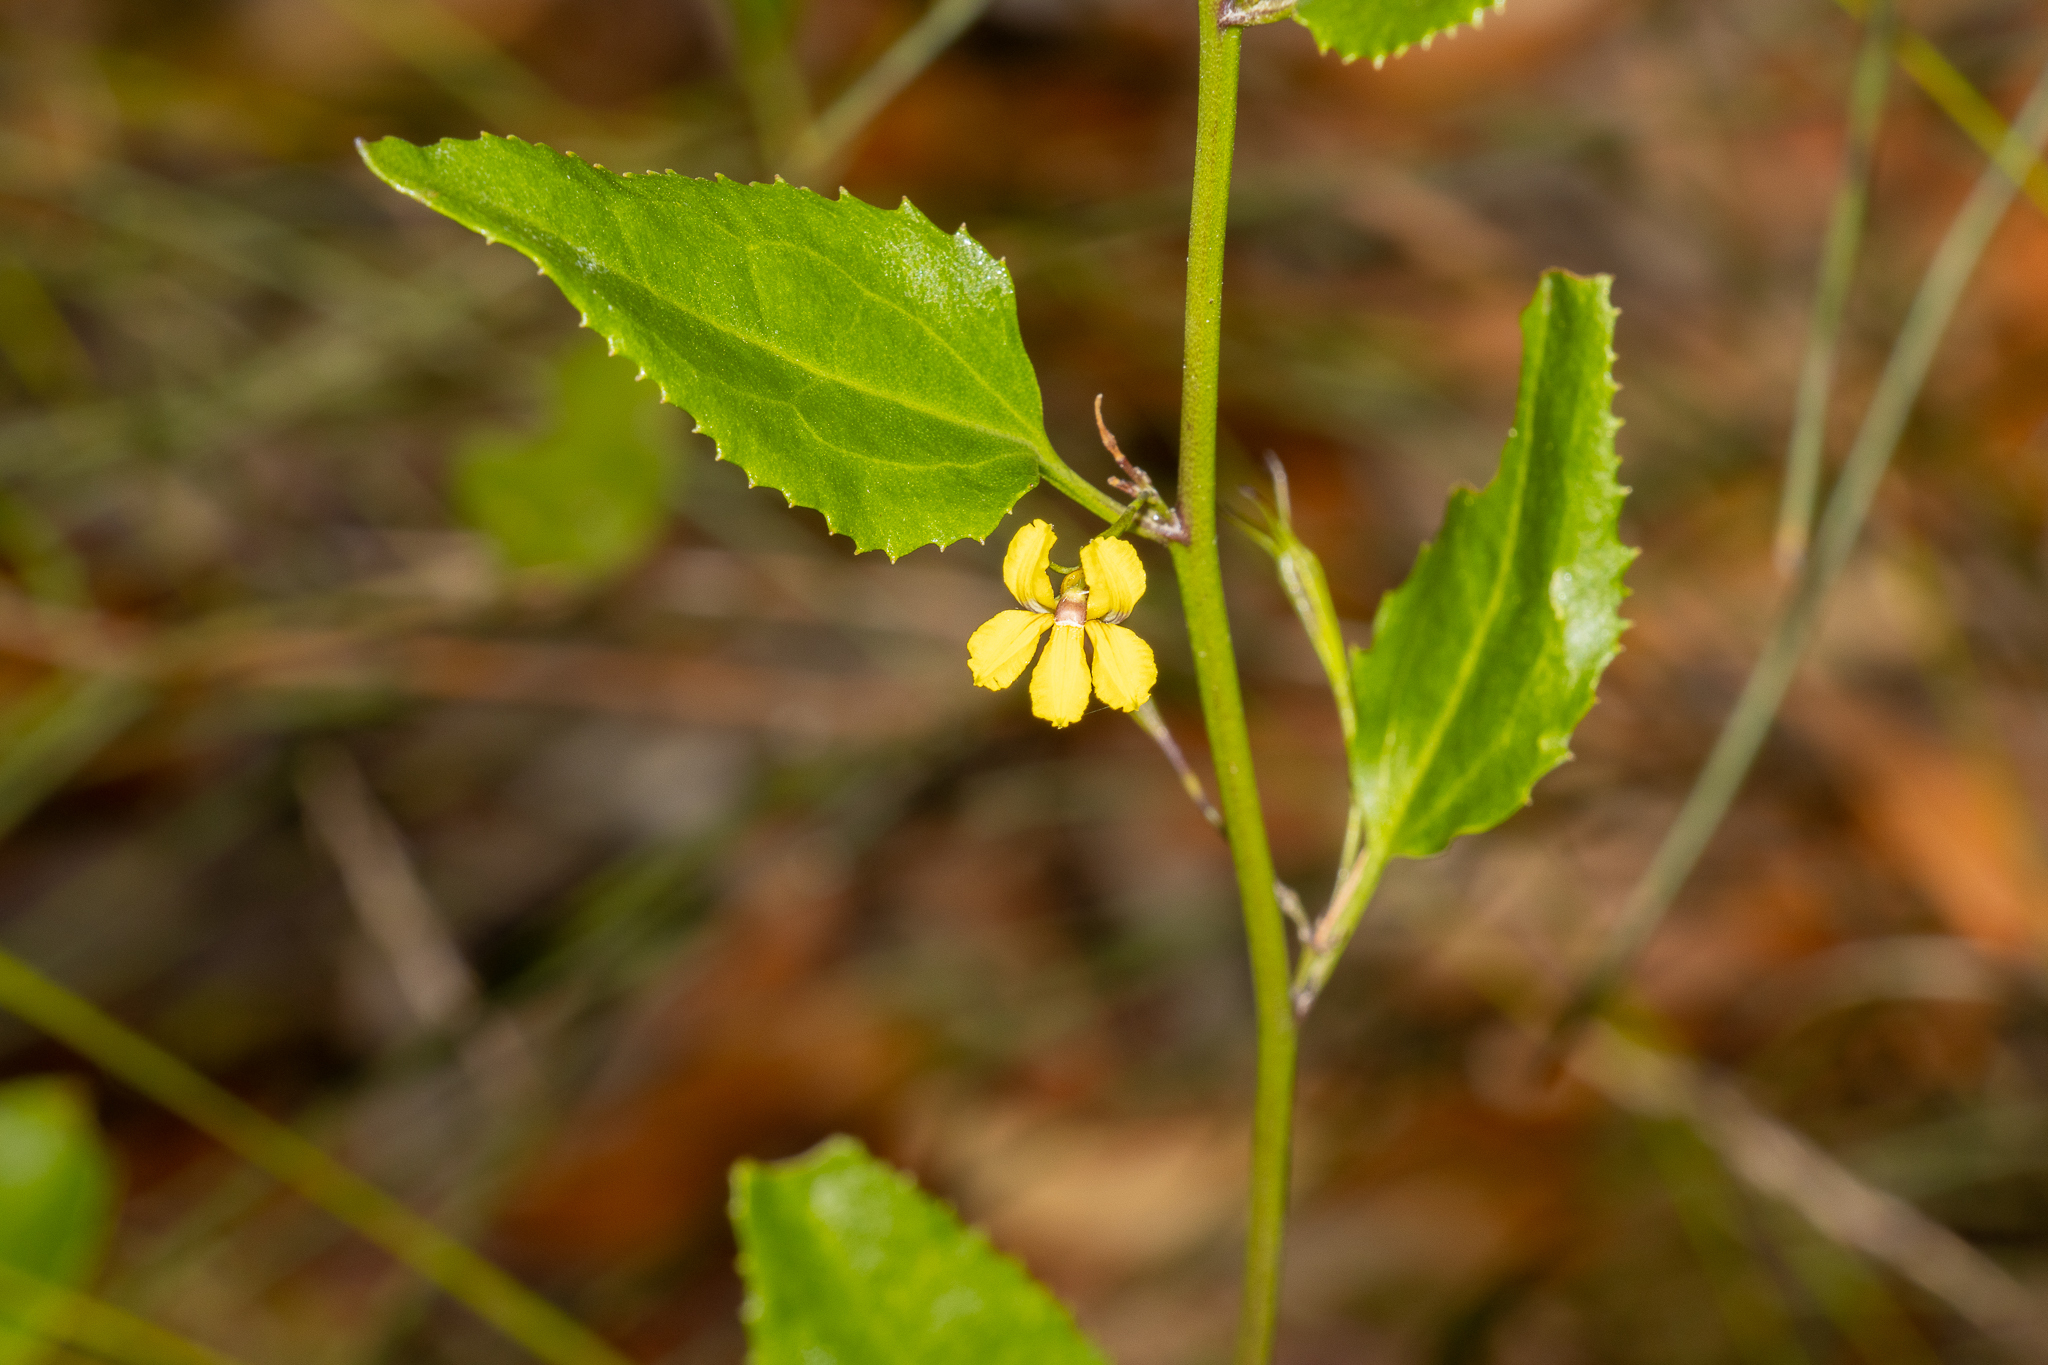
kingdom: Plantae
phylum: Tracheophyta
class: Magnoliopsida
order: Asterales
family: Goodeniaceae
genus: Goodenia
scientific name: Goodenia ovata
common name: Hop goodenia
